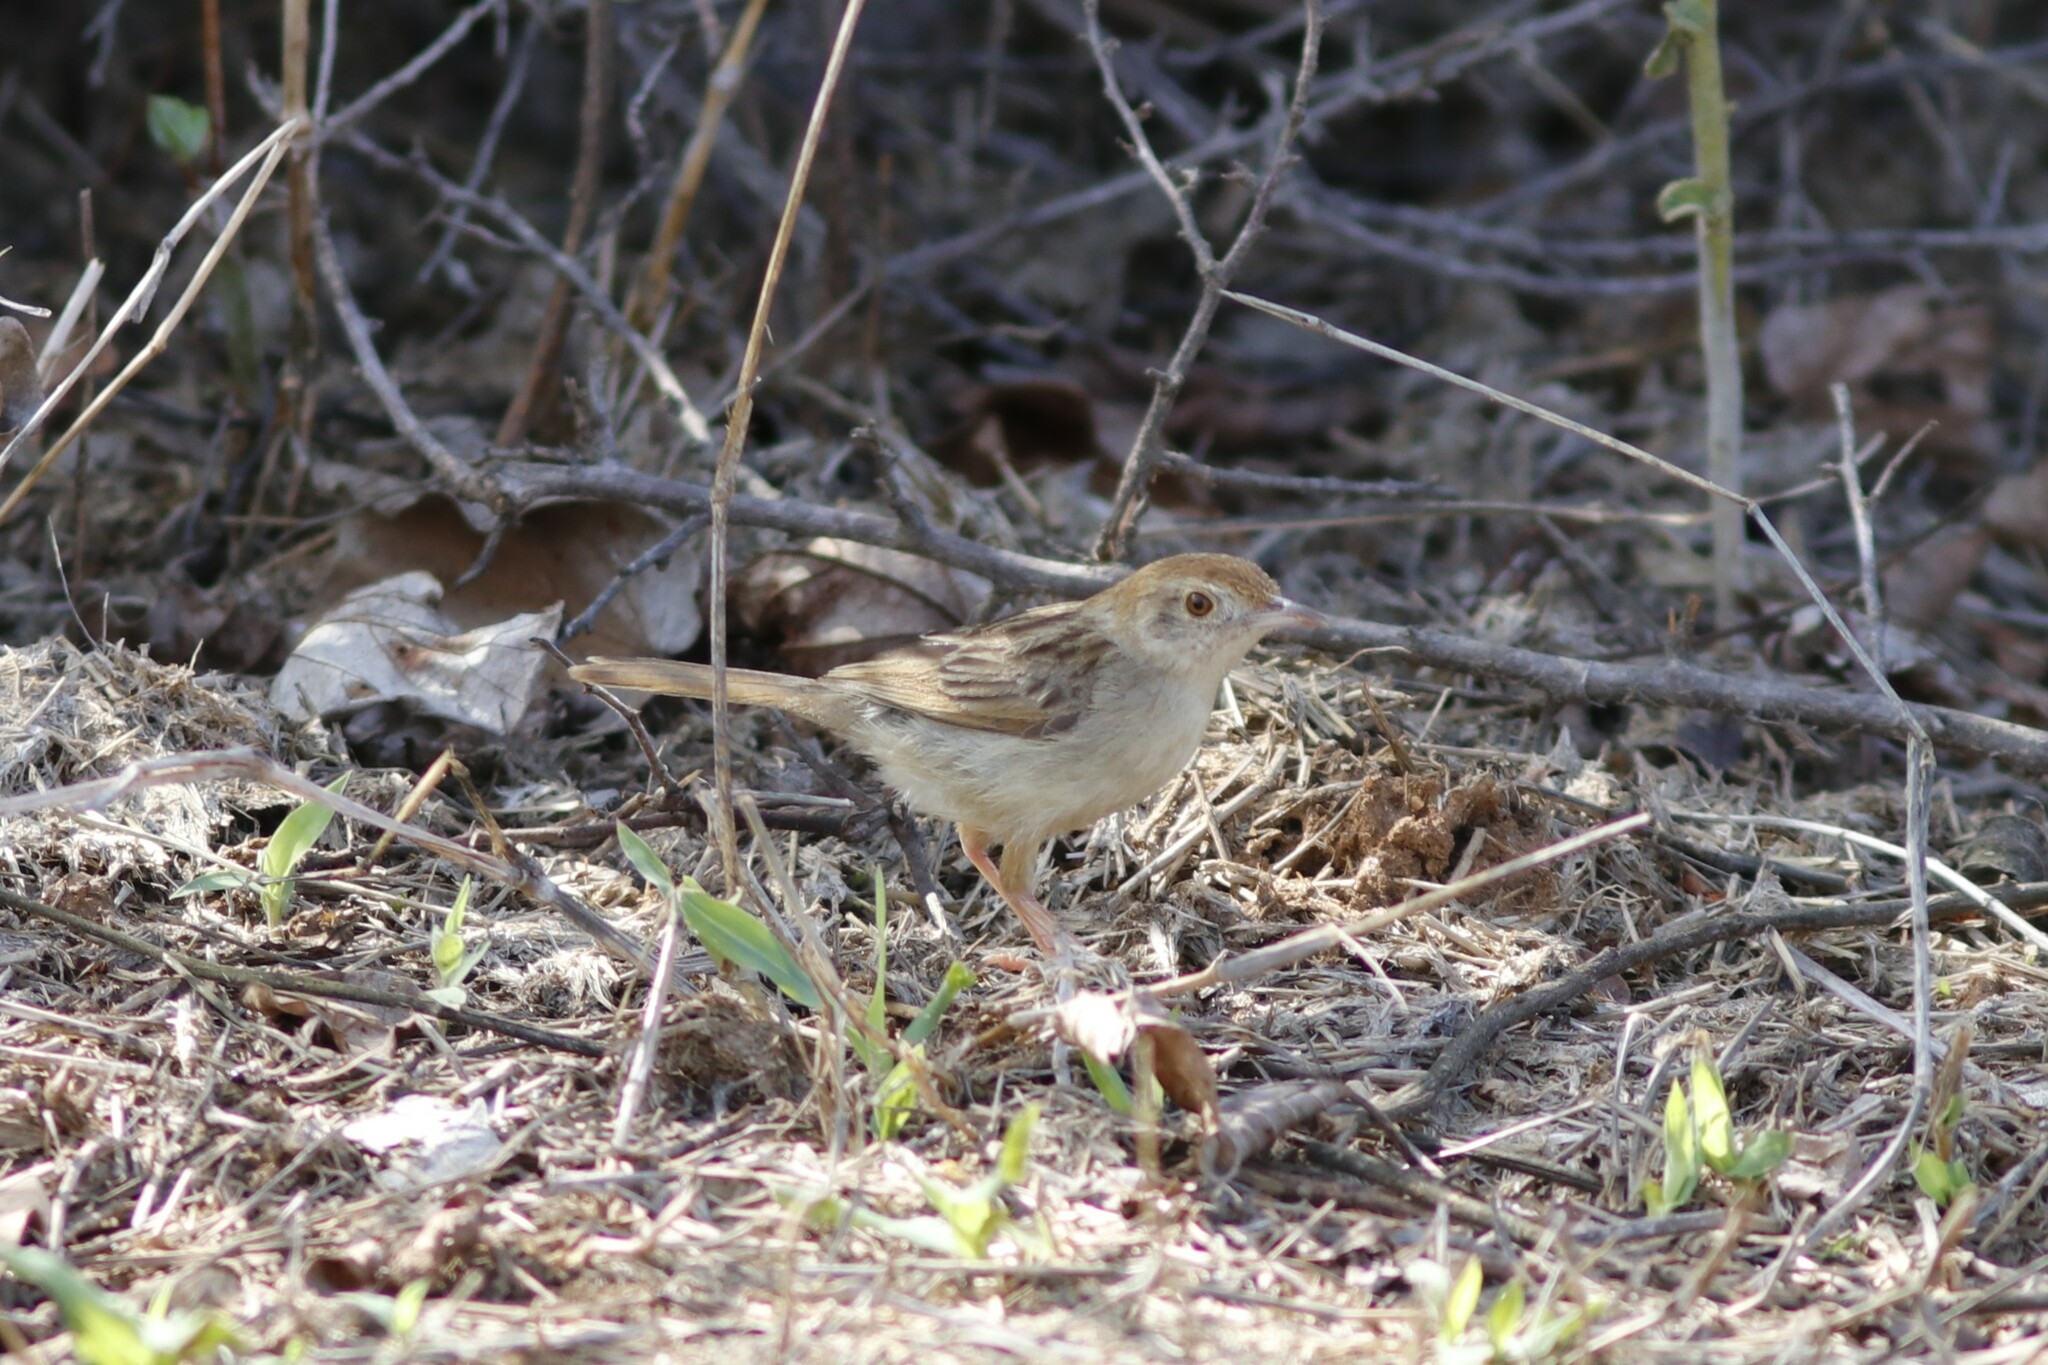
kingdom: Animalia
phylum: Chordata
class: Aves
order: Passeriformes
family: Cisticolidae
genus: Cisticola
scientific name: Cisticola chiniana
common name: Rattling cisticola
